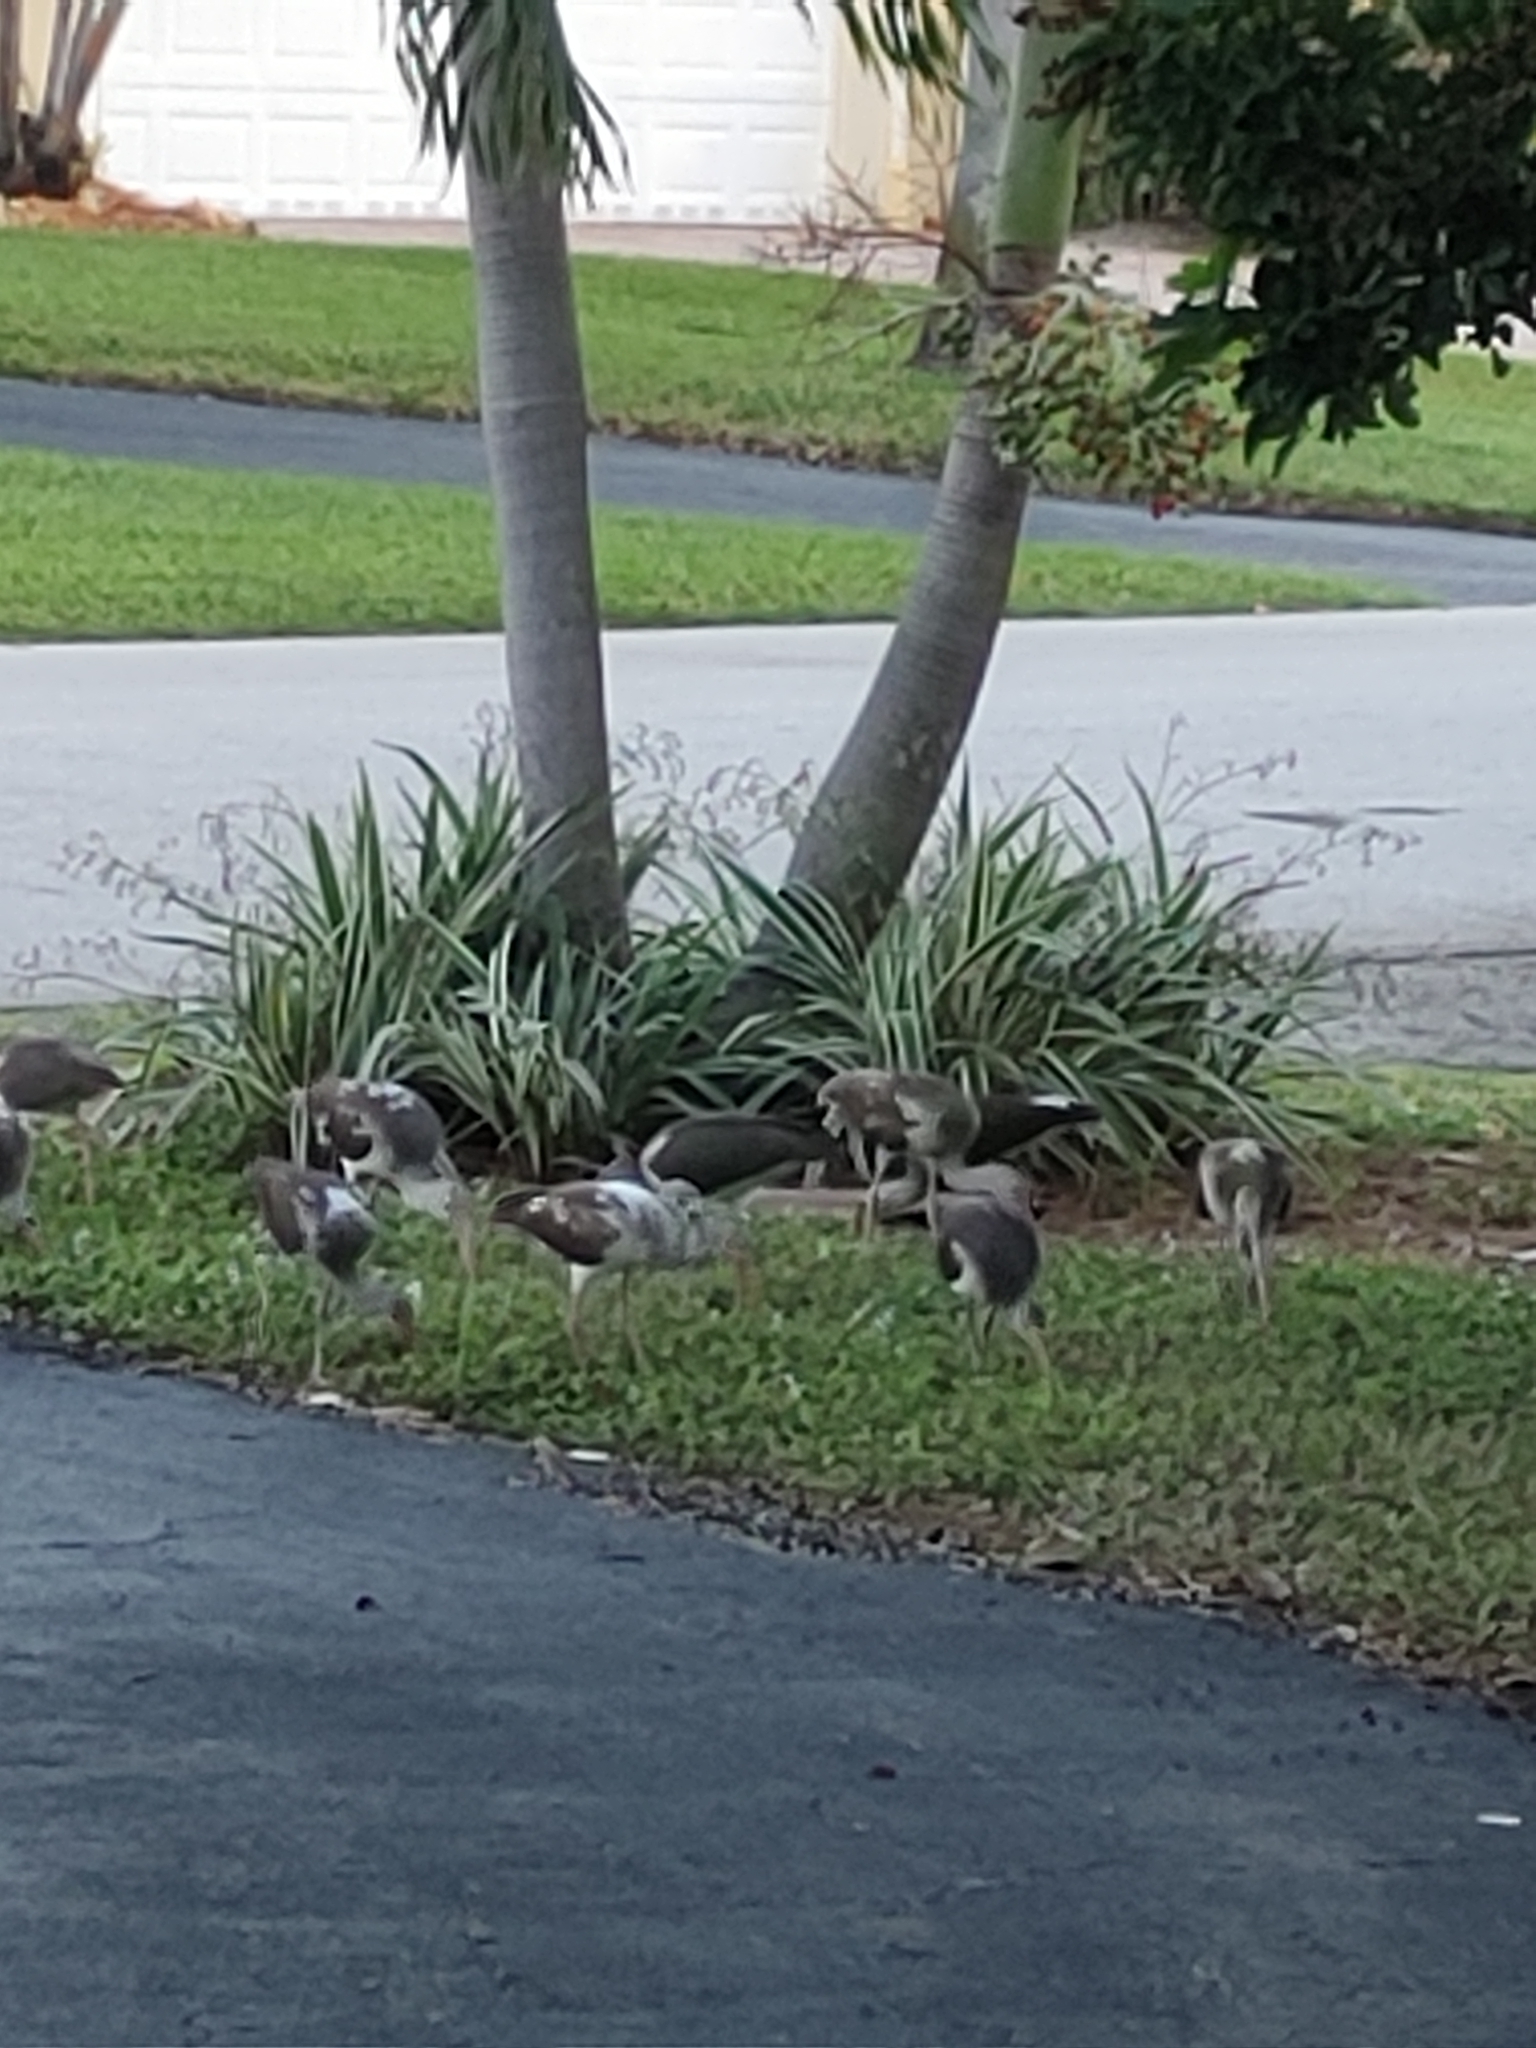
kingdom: Animalia
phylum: Chordata
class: Aves
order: Pelecaniformes
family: Threskiornithidae
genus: Eudocimus
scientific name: Eudocimus albus
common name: White ibis
